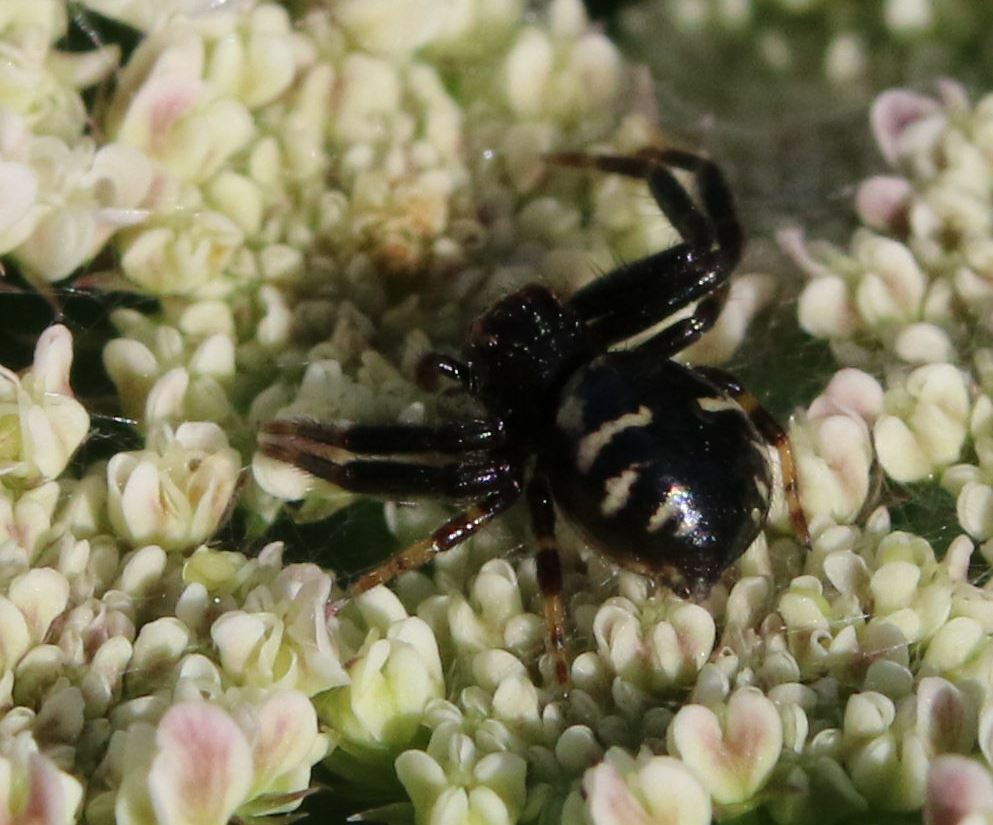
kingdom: Animalia
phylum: Arthropoda
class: Arachnida
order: Araneae
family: Thomisidae
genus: Synema
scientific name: Synema globosum
